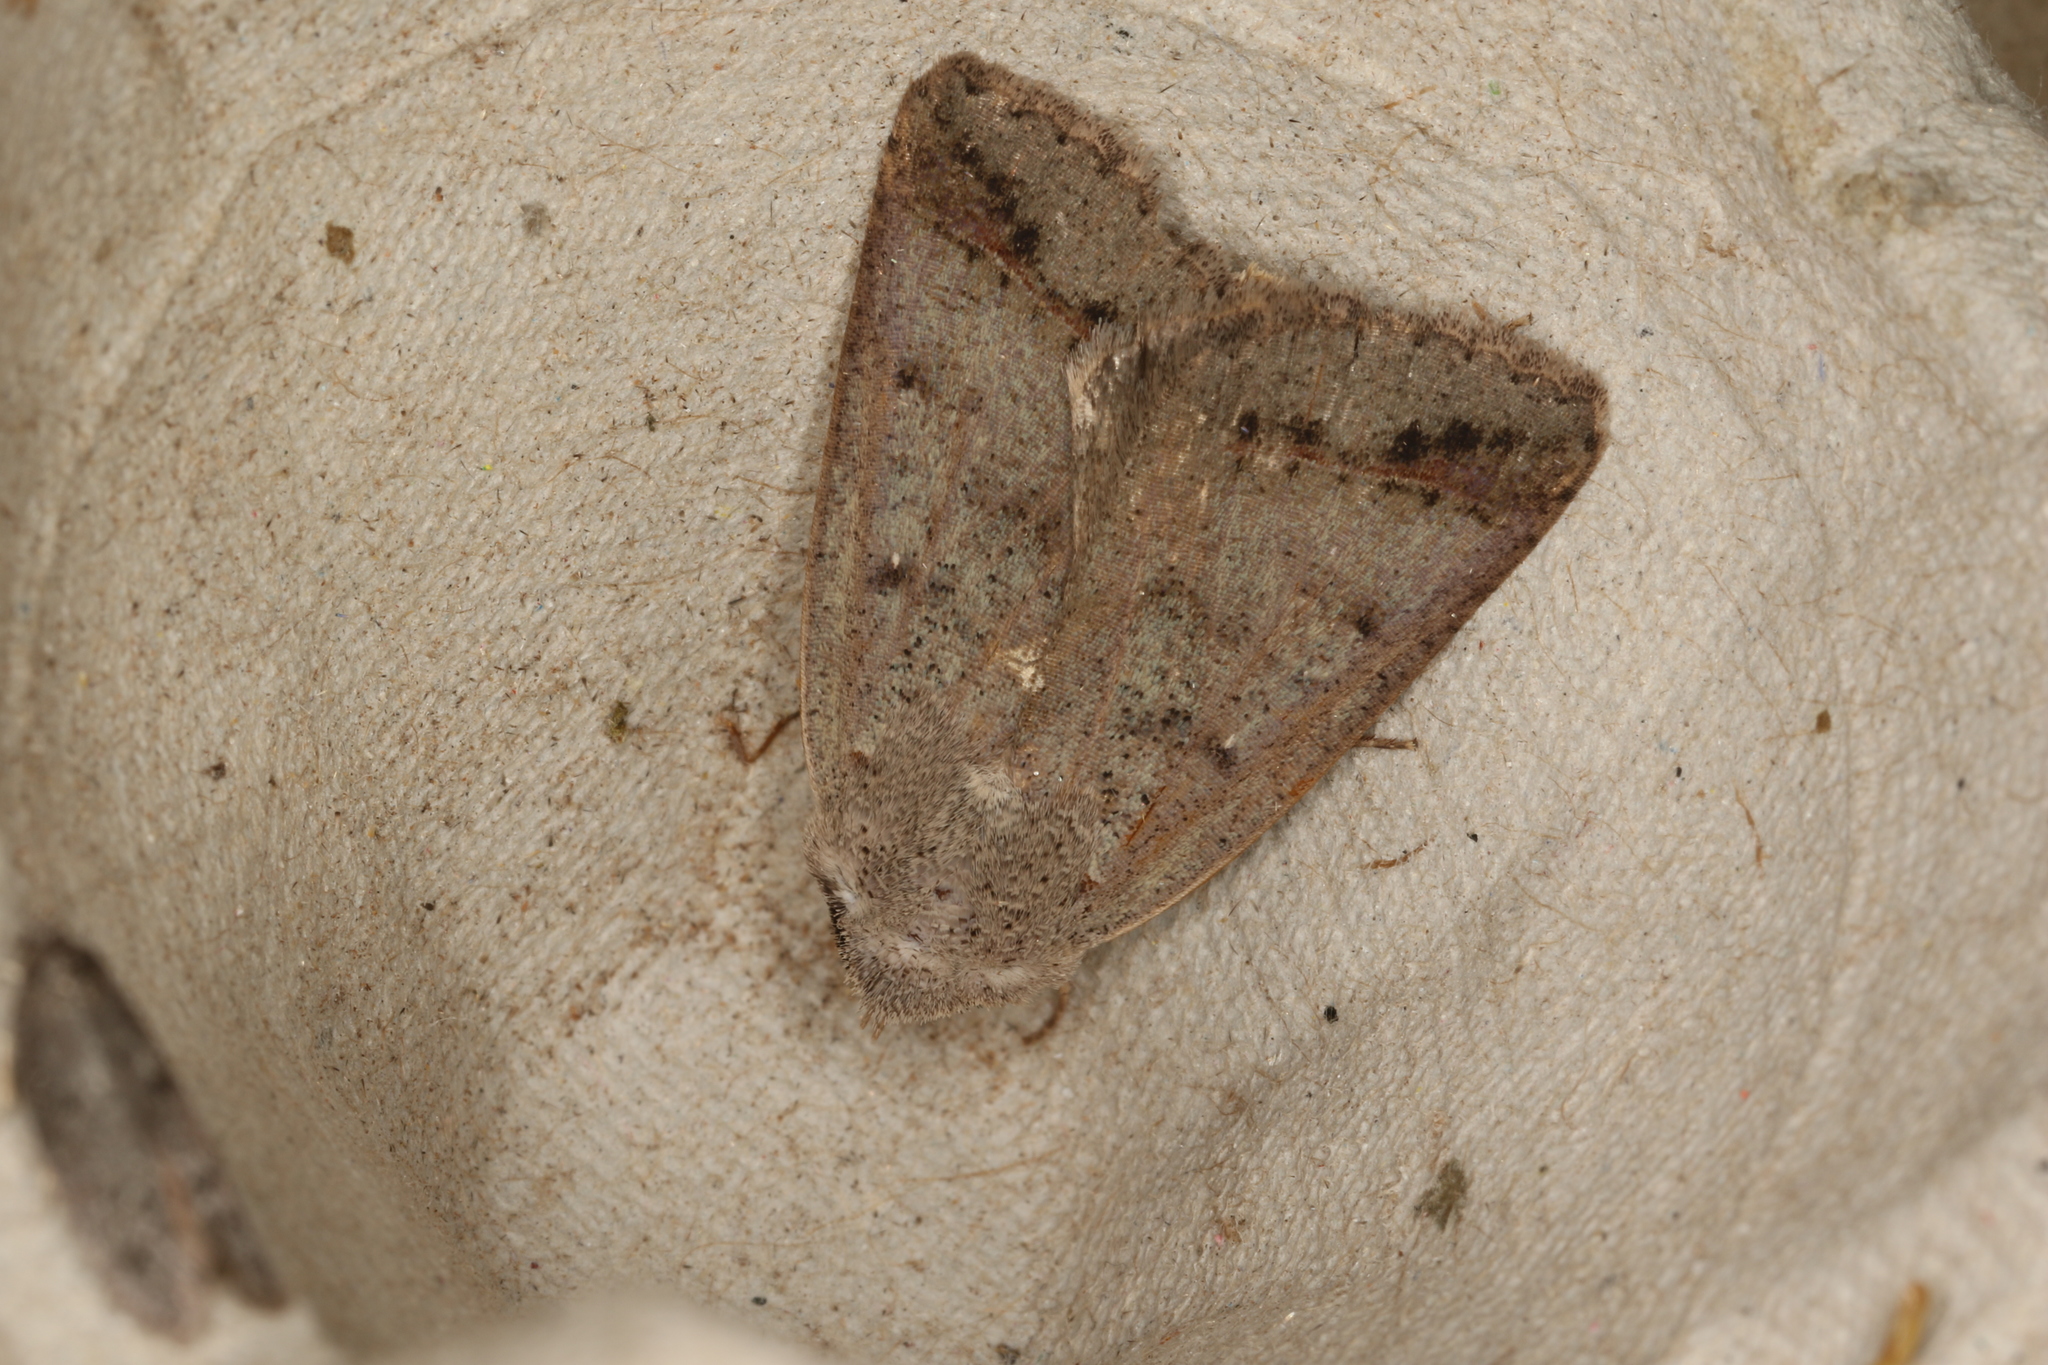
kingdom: Animalia
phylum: Arthropoda
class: Insecta
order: Lepidoptera
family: Erebidae
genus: Pantydia
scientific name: Pantydia sparsa
